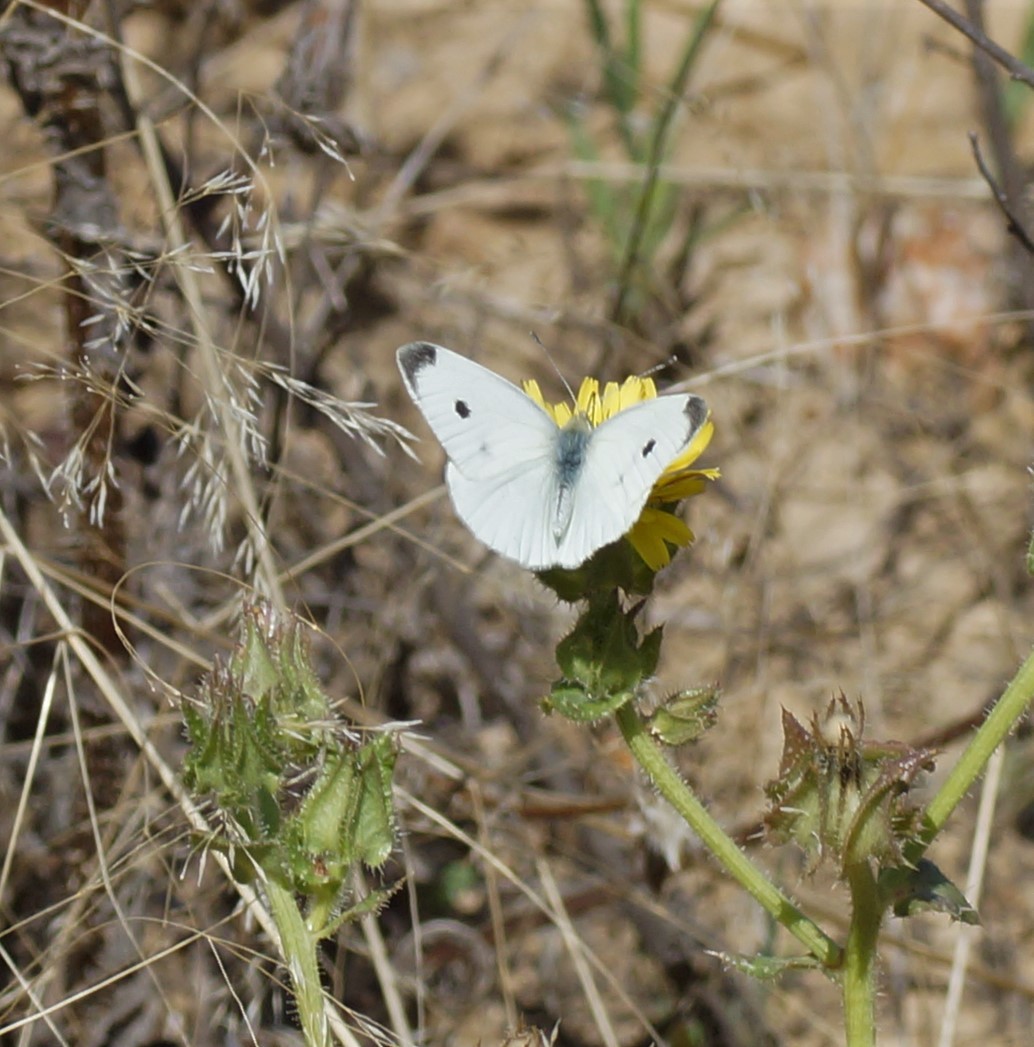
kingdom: Animalia
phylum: Arthropoda
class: Insecta
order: Lepidoptera
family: Pieridae
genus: Pieris
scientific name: Pieris rapae
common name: Small white
